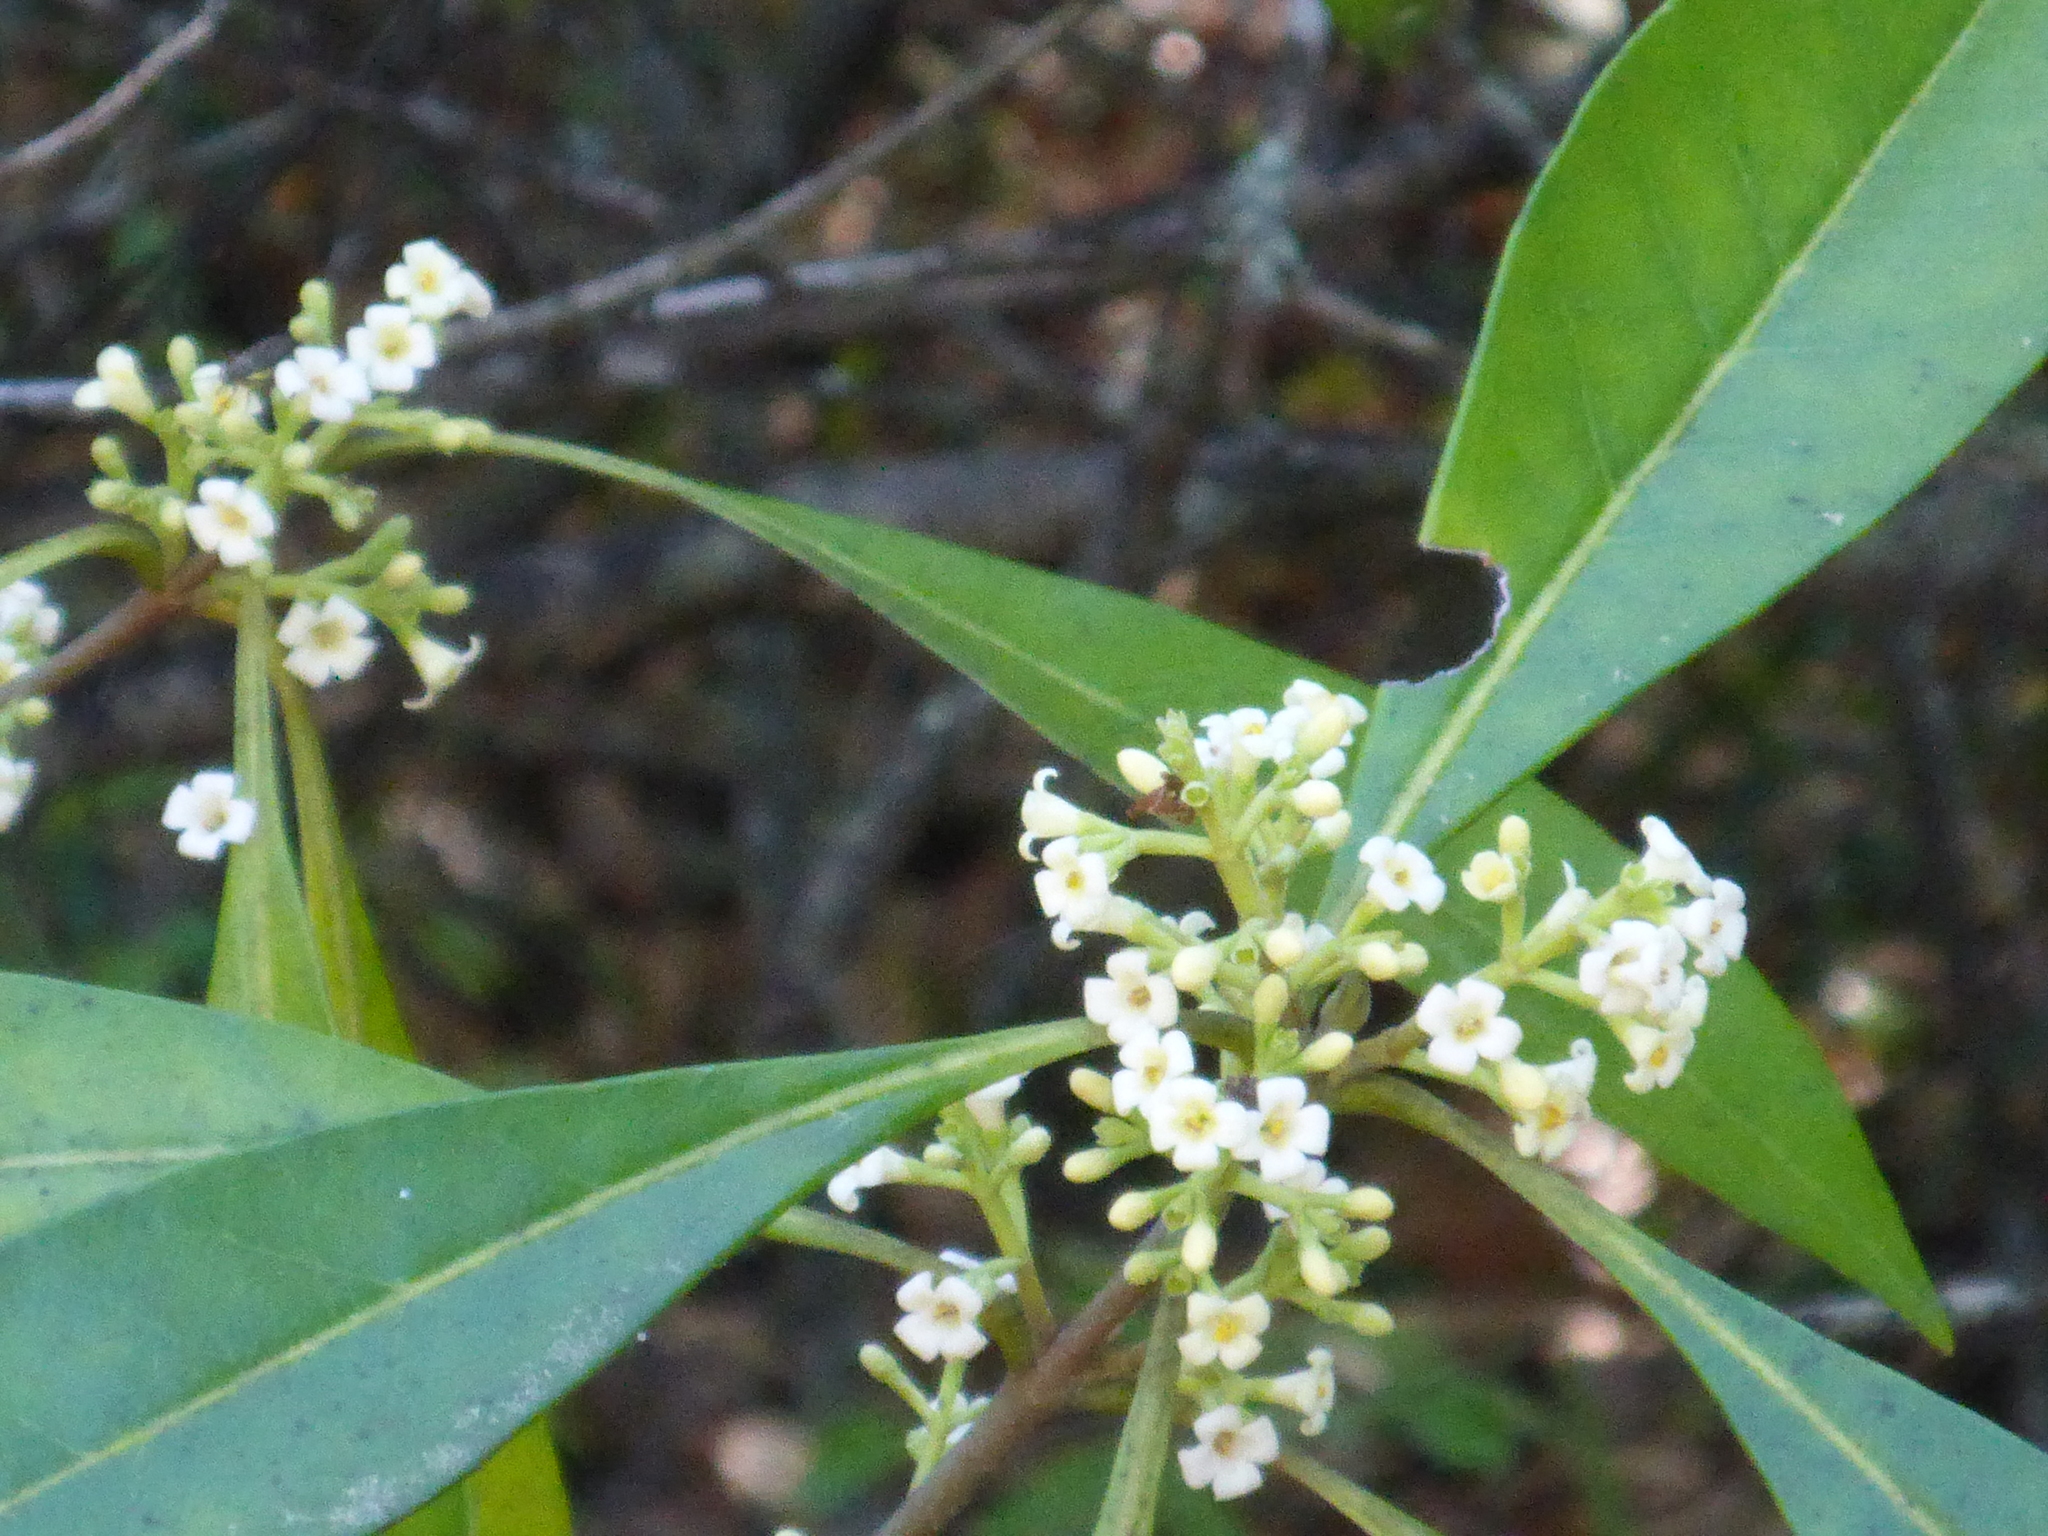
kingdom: Plantae
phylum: Tracheophyta
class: Magnoliopsida
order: Lamiales
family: Oleaceae
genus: Cartrema
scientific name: Cartrema americana
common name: Devilwood
